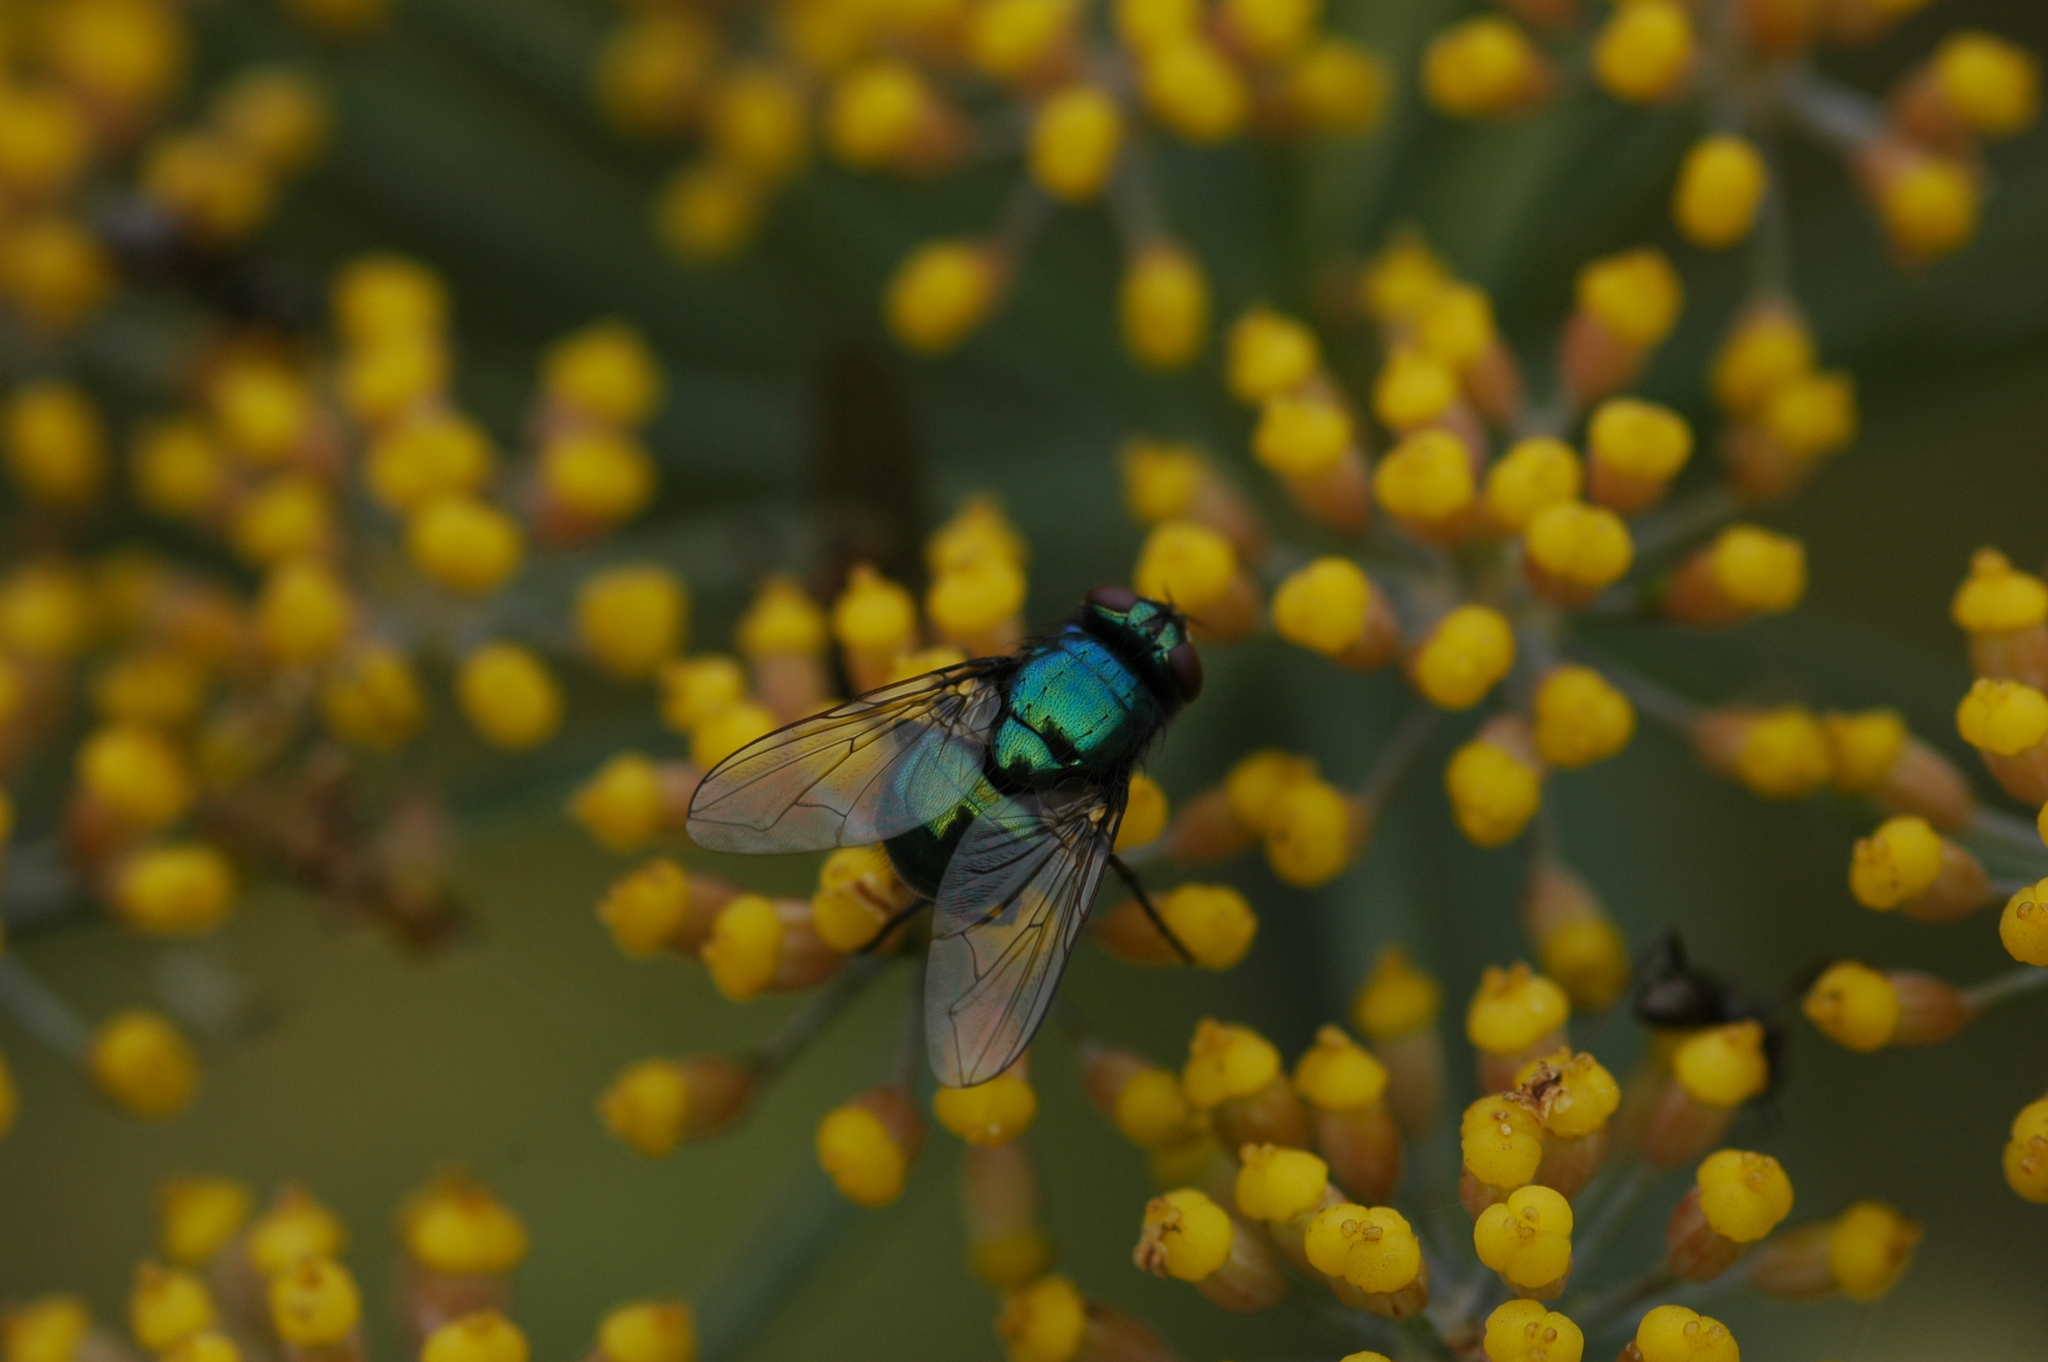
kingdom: Animalia
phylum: Arthropoda
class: Insecta
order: Diptera
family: Muscidae
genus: Neomyia
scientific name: Neomyia cornicina
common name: House fly
